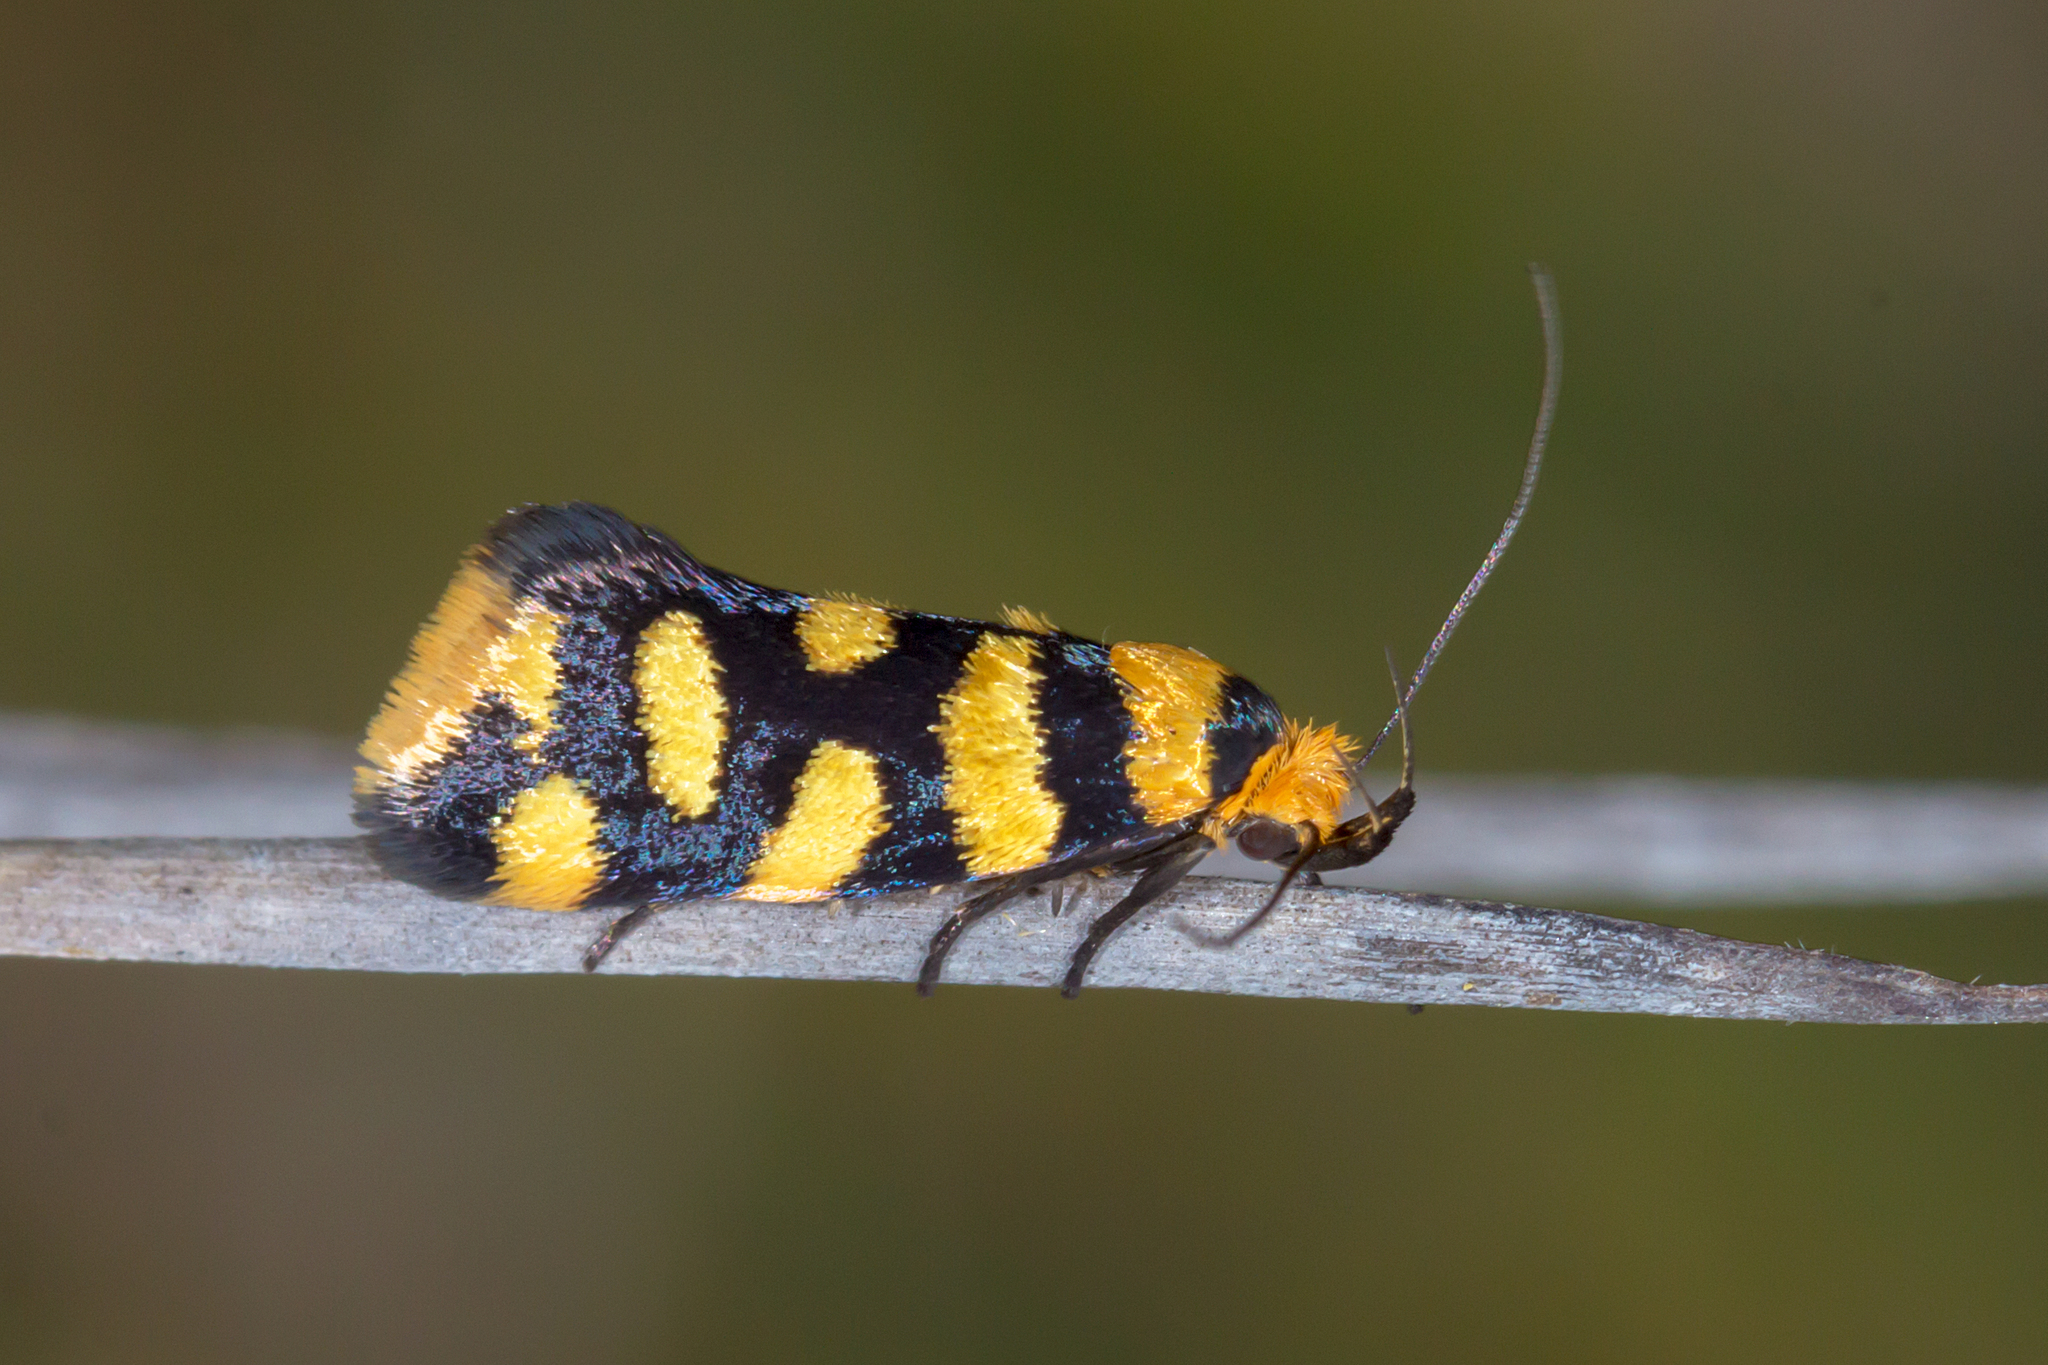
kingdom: Animalia
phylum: Arthropoda
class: Insecta
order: Lepidoptera
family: Oecophoridae
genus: Tanyzancla
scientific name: Tanyzancla argutella
